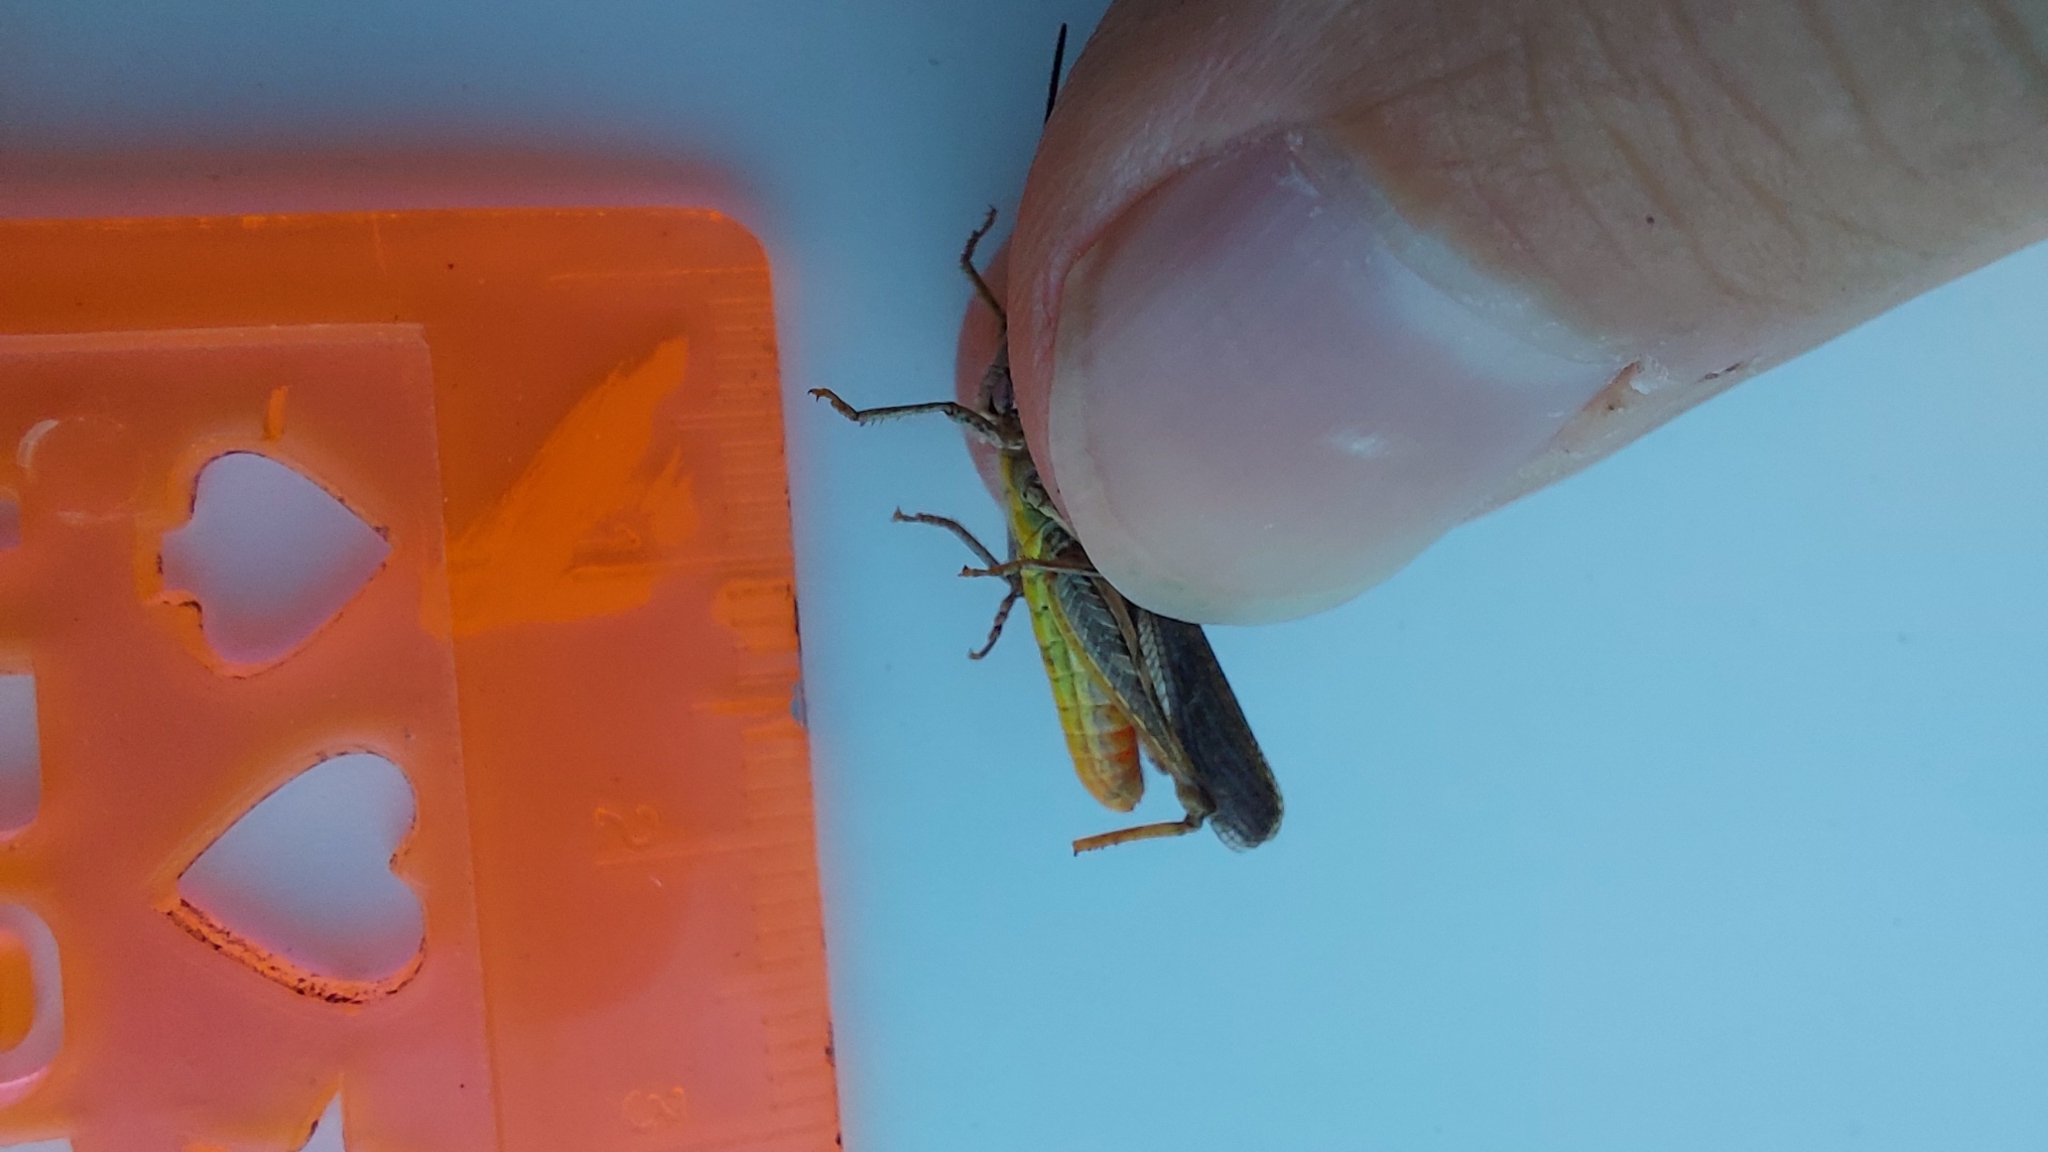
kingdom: Animalia
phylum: Arthropoda
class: Insecta
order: Orthoptera
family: Acrididae
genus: Chorthippus
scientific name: Chorthippus brunneus
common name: Field grasshopper
